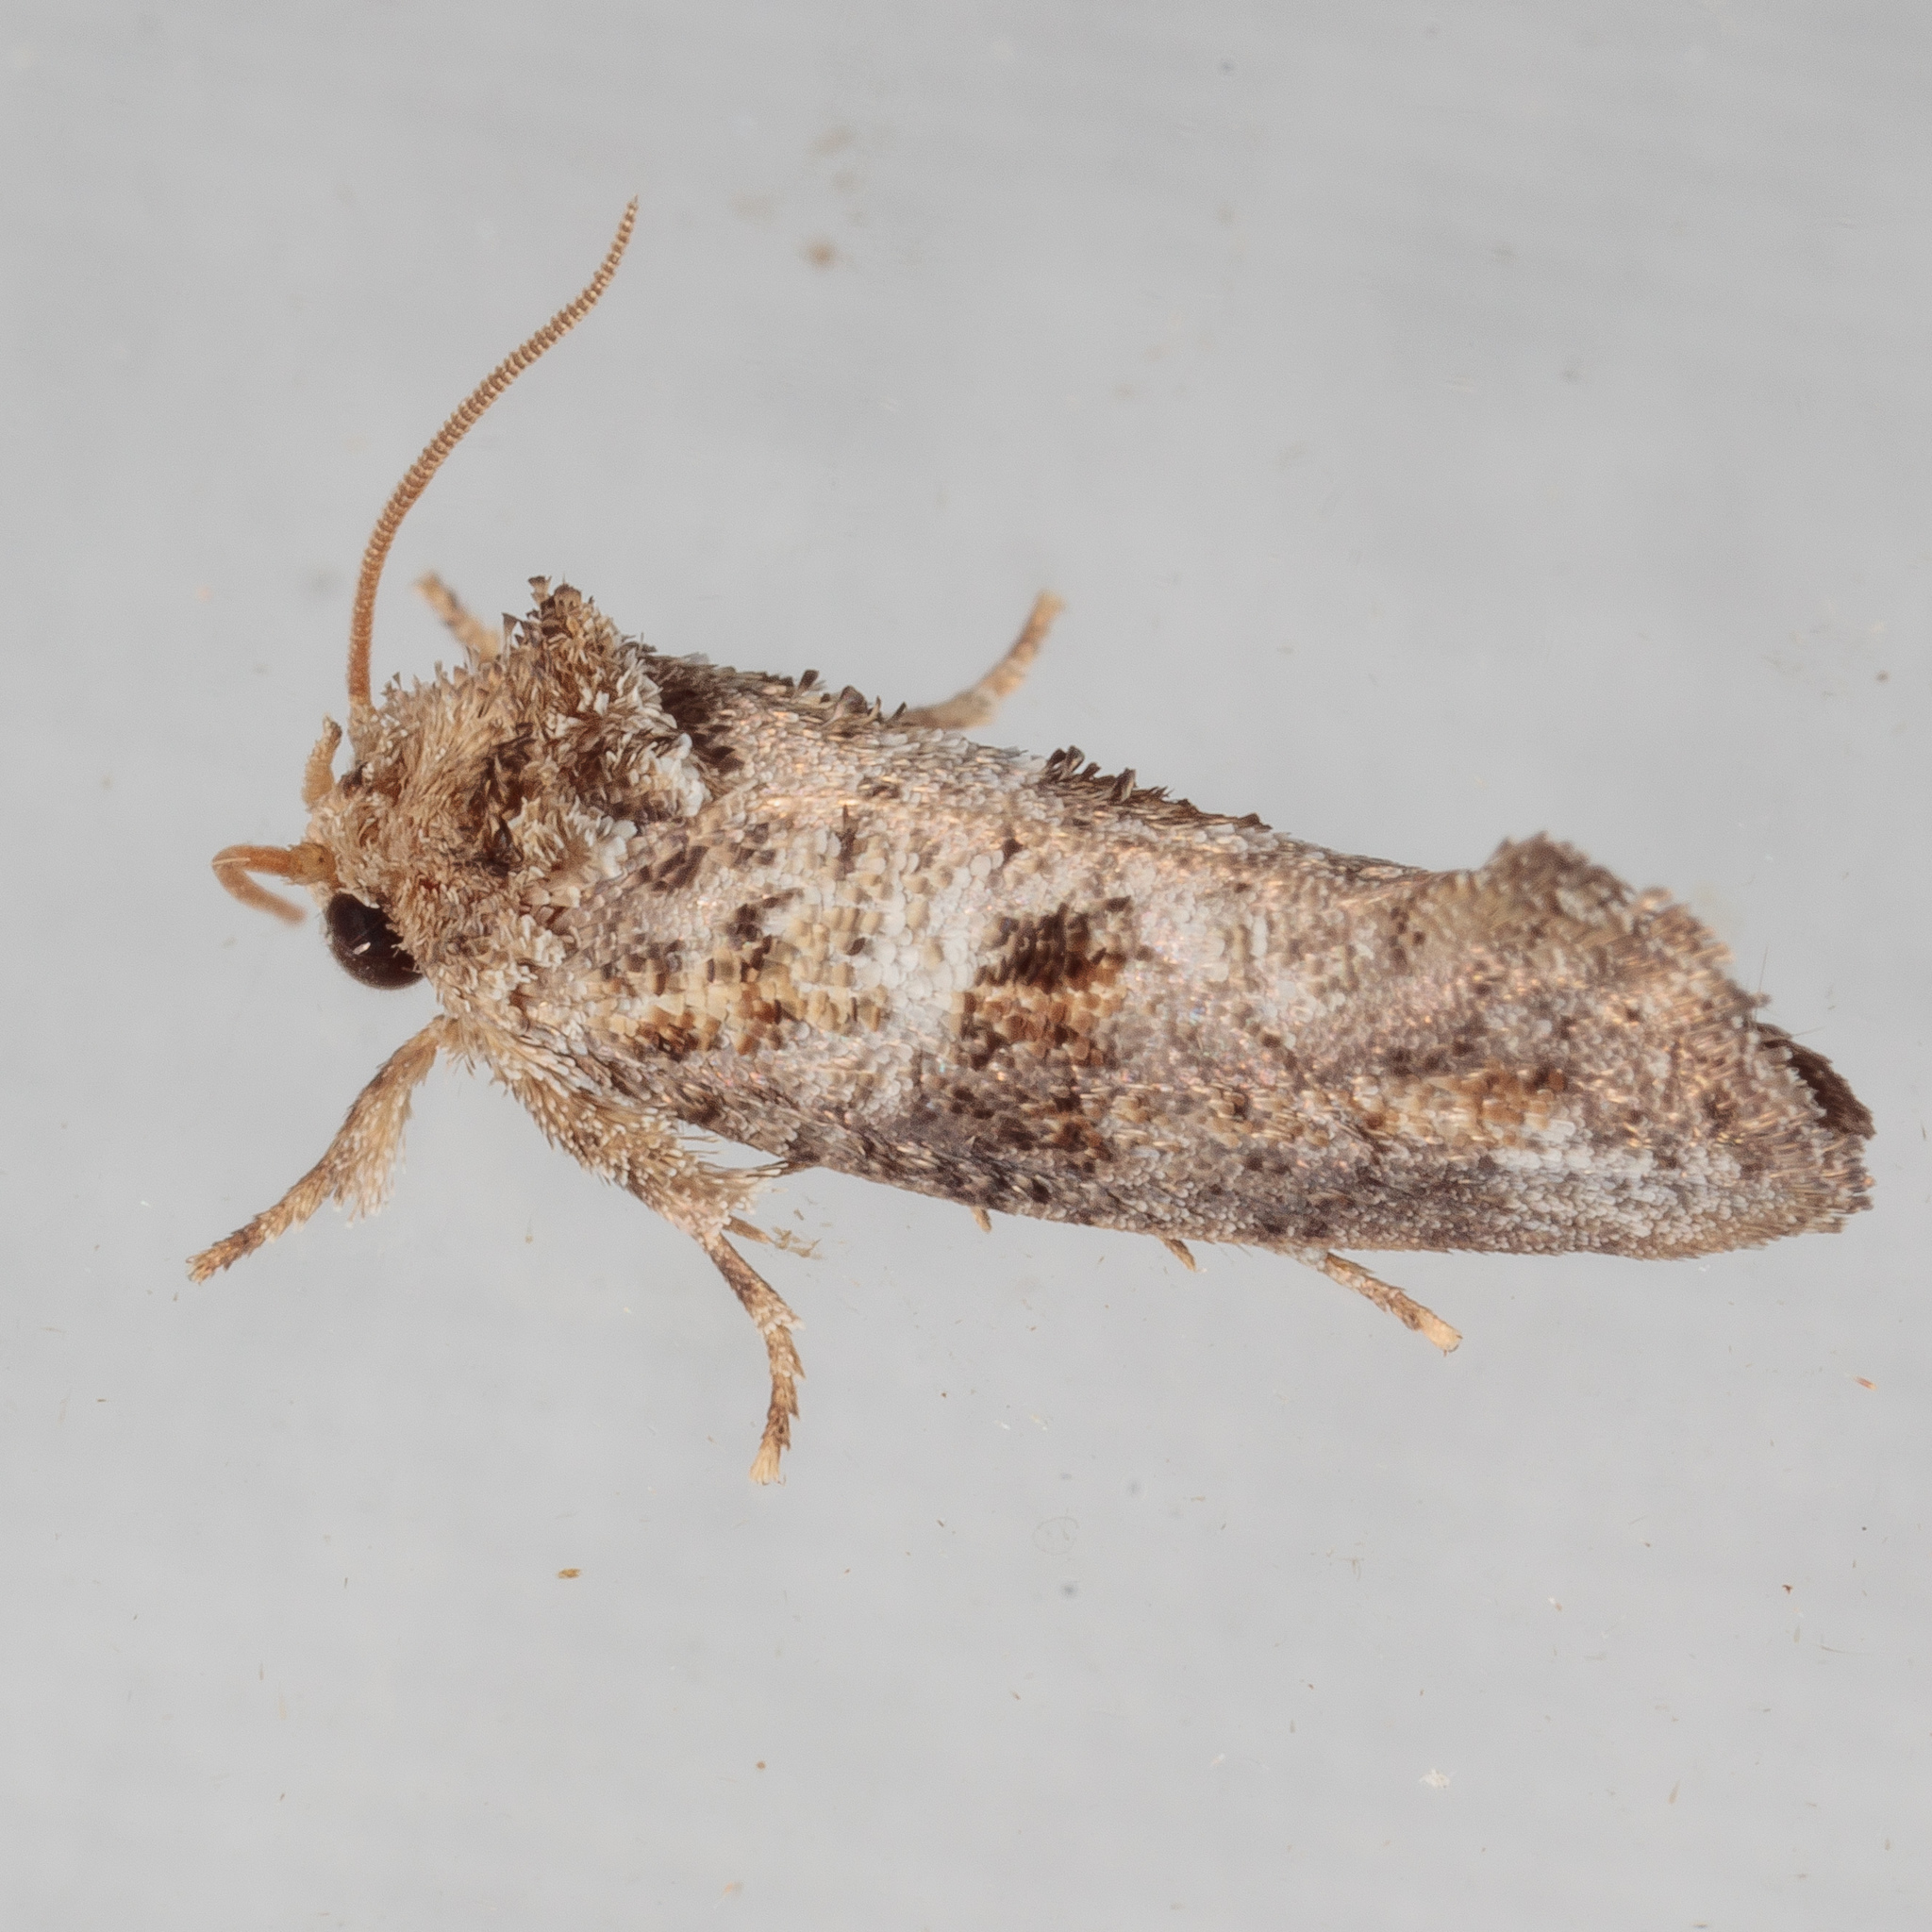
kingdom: Animalia
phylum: Arthropoda
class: Insecta
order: Lepidoptera
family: Tineidae
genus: Acrolophus
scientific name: Acrolophus piger
